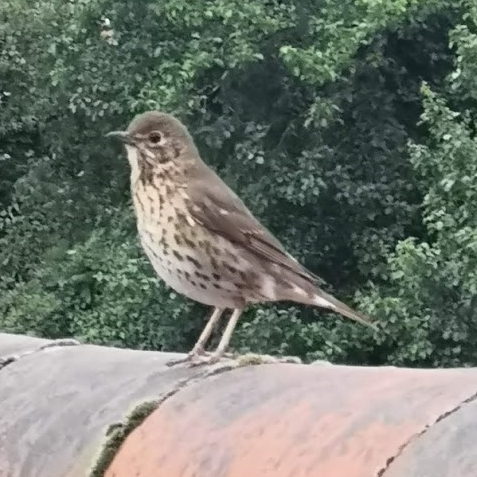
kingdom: Animalia
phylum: Chordata
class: Aves
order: Passeriformes
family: Turdidae
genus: Turdus
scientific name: Turdus philomelos
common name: Song thrush
